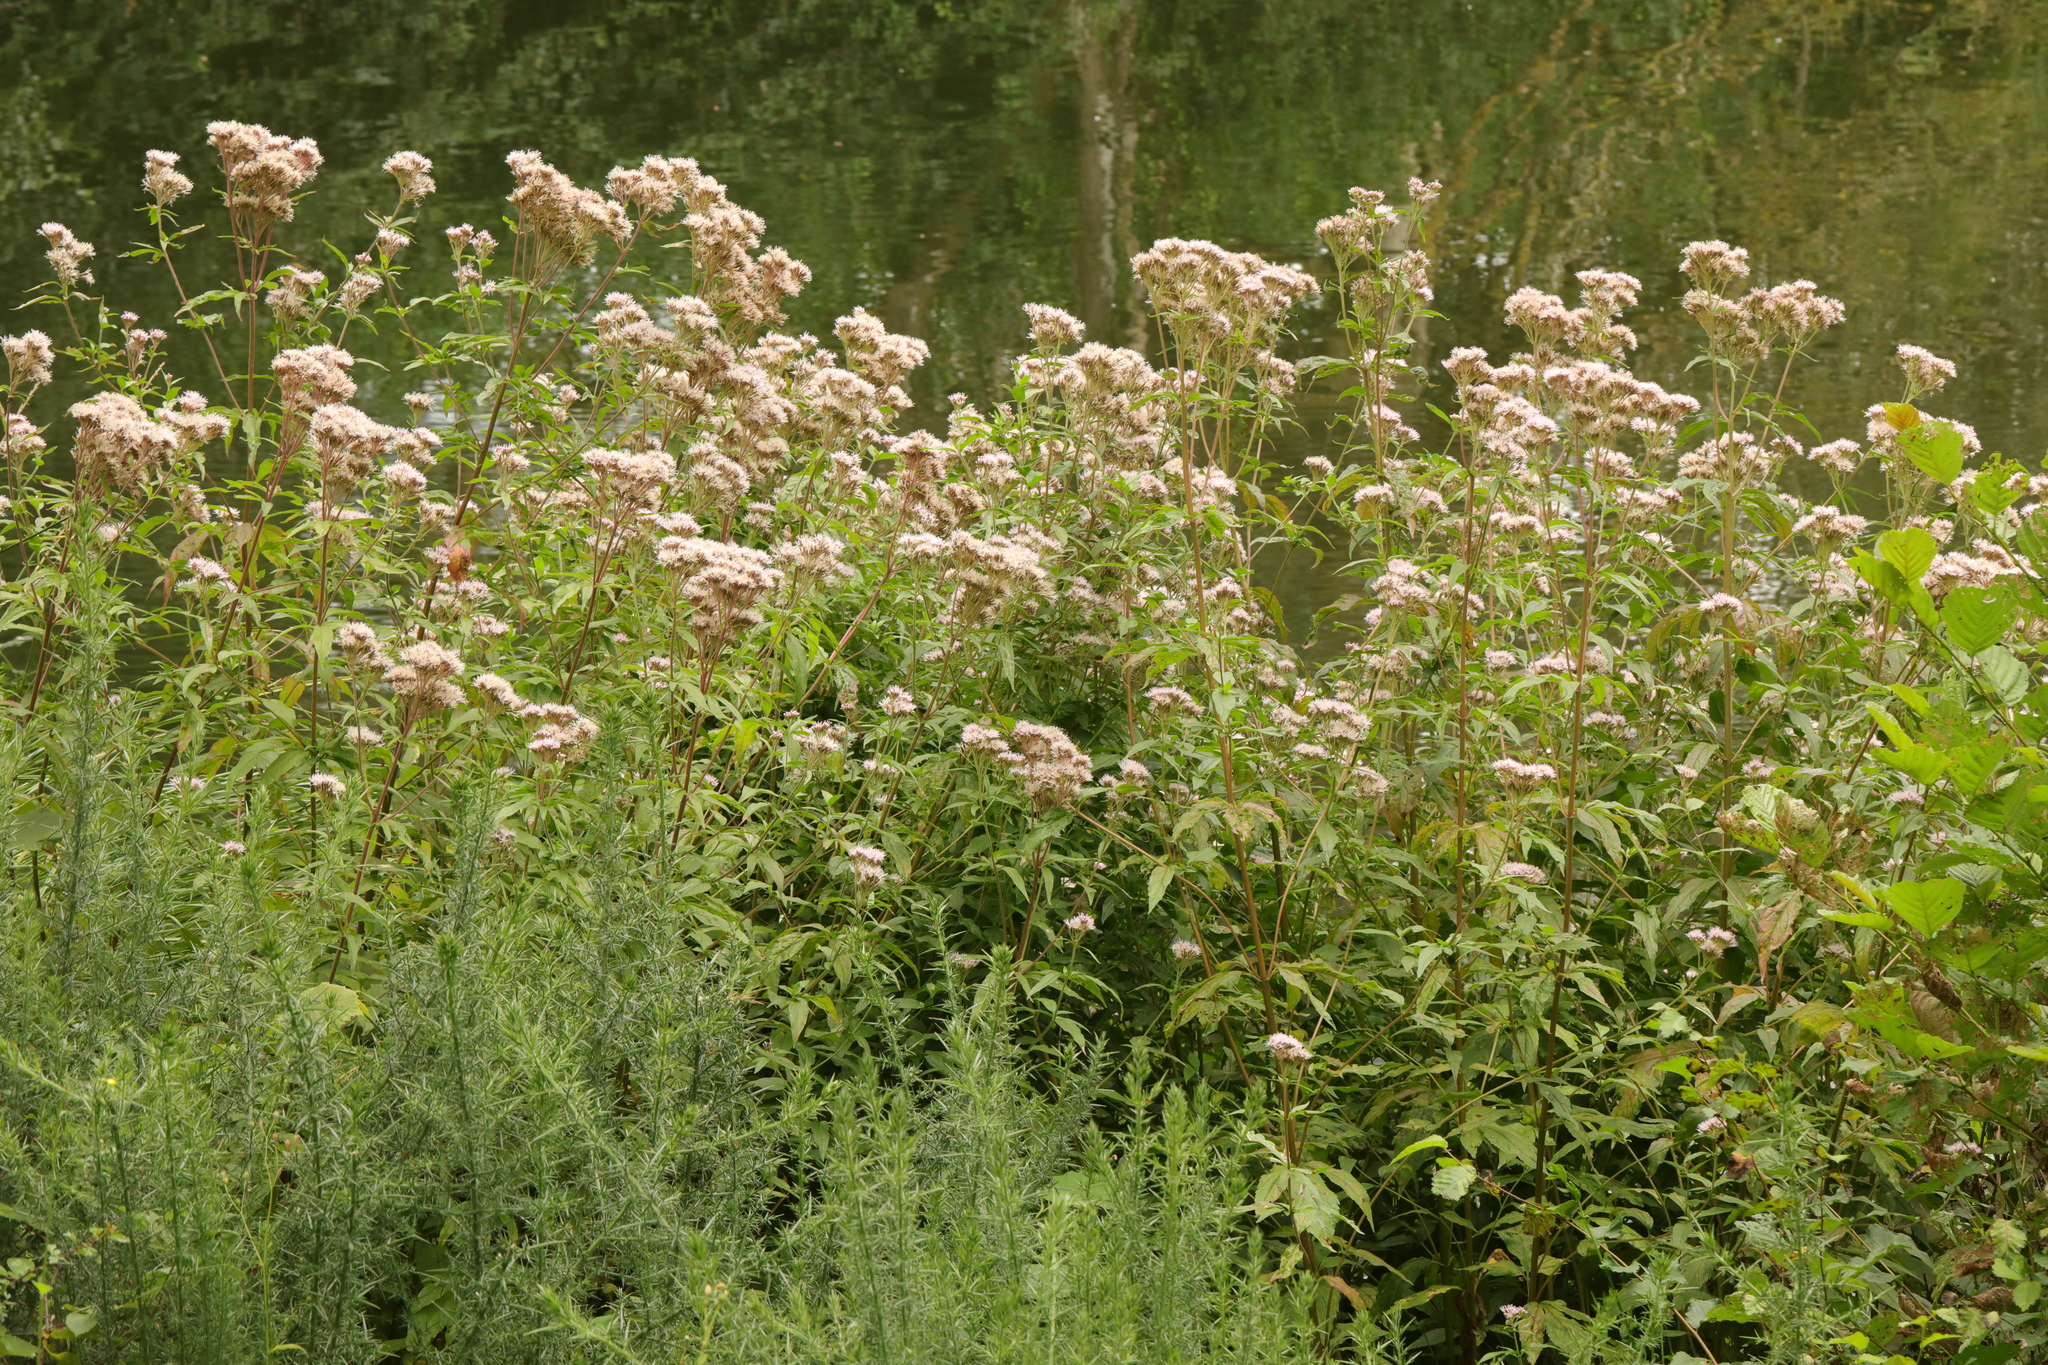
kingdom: Plantae
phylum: Tracheophyta
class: Magnoliopsida
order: Asterales
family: Asteraceae
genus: Eupatorium
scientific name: Eupatorium cannabinum
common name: Hemp-agrimony
